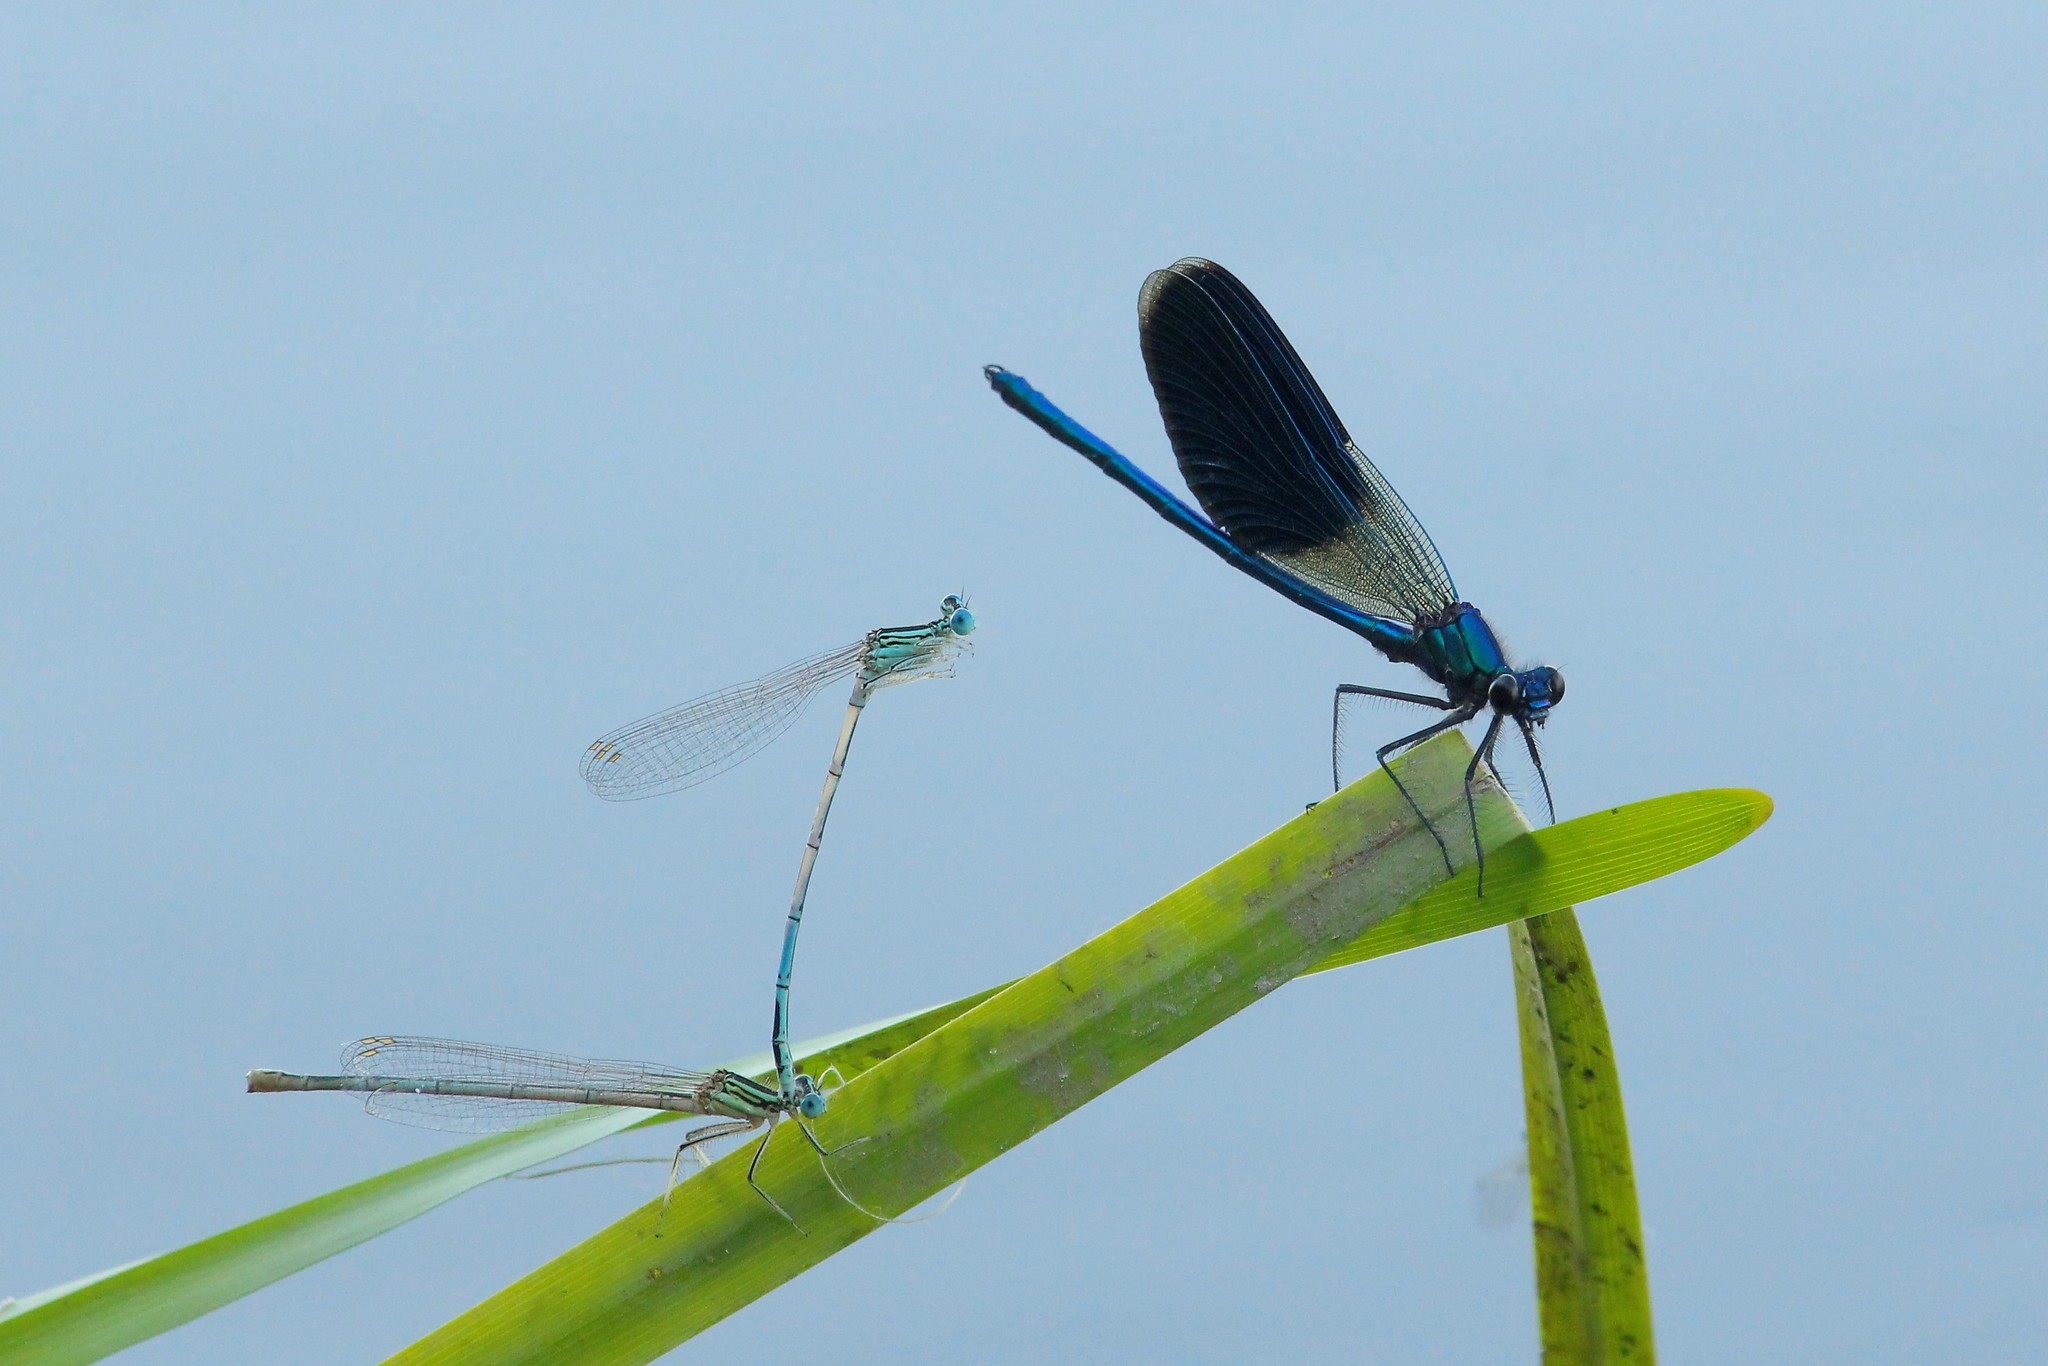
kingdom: Animalia
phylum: Arthropoda
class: Insecta
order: Odonata
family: Platycnemididae
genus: Platycnemis
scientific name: Platycnemis pennipes
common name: White-legged damselfly
